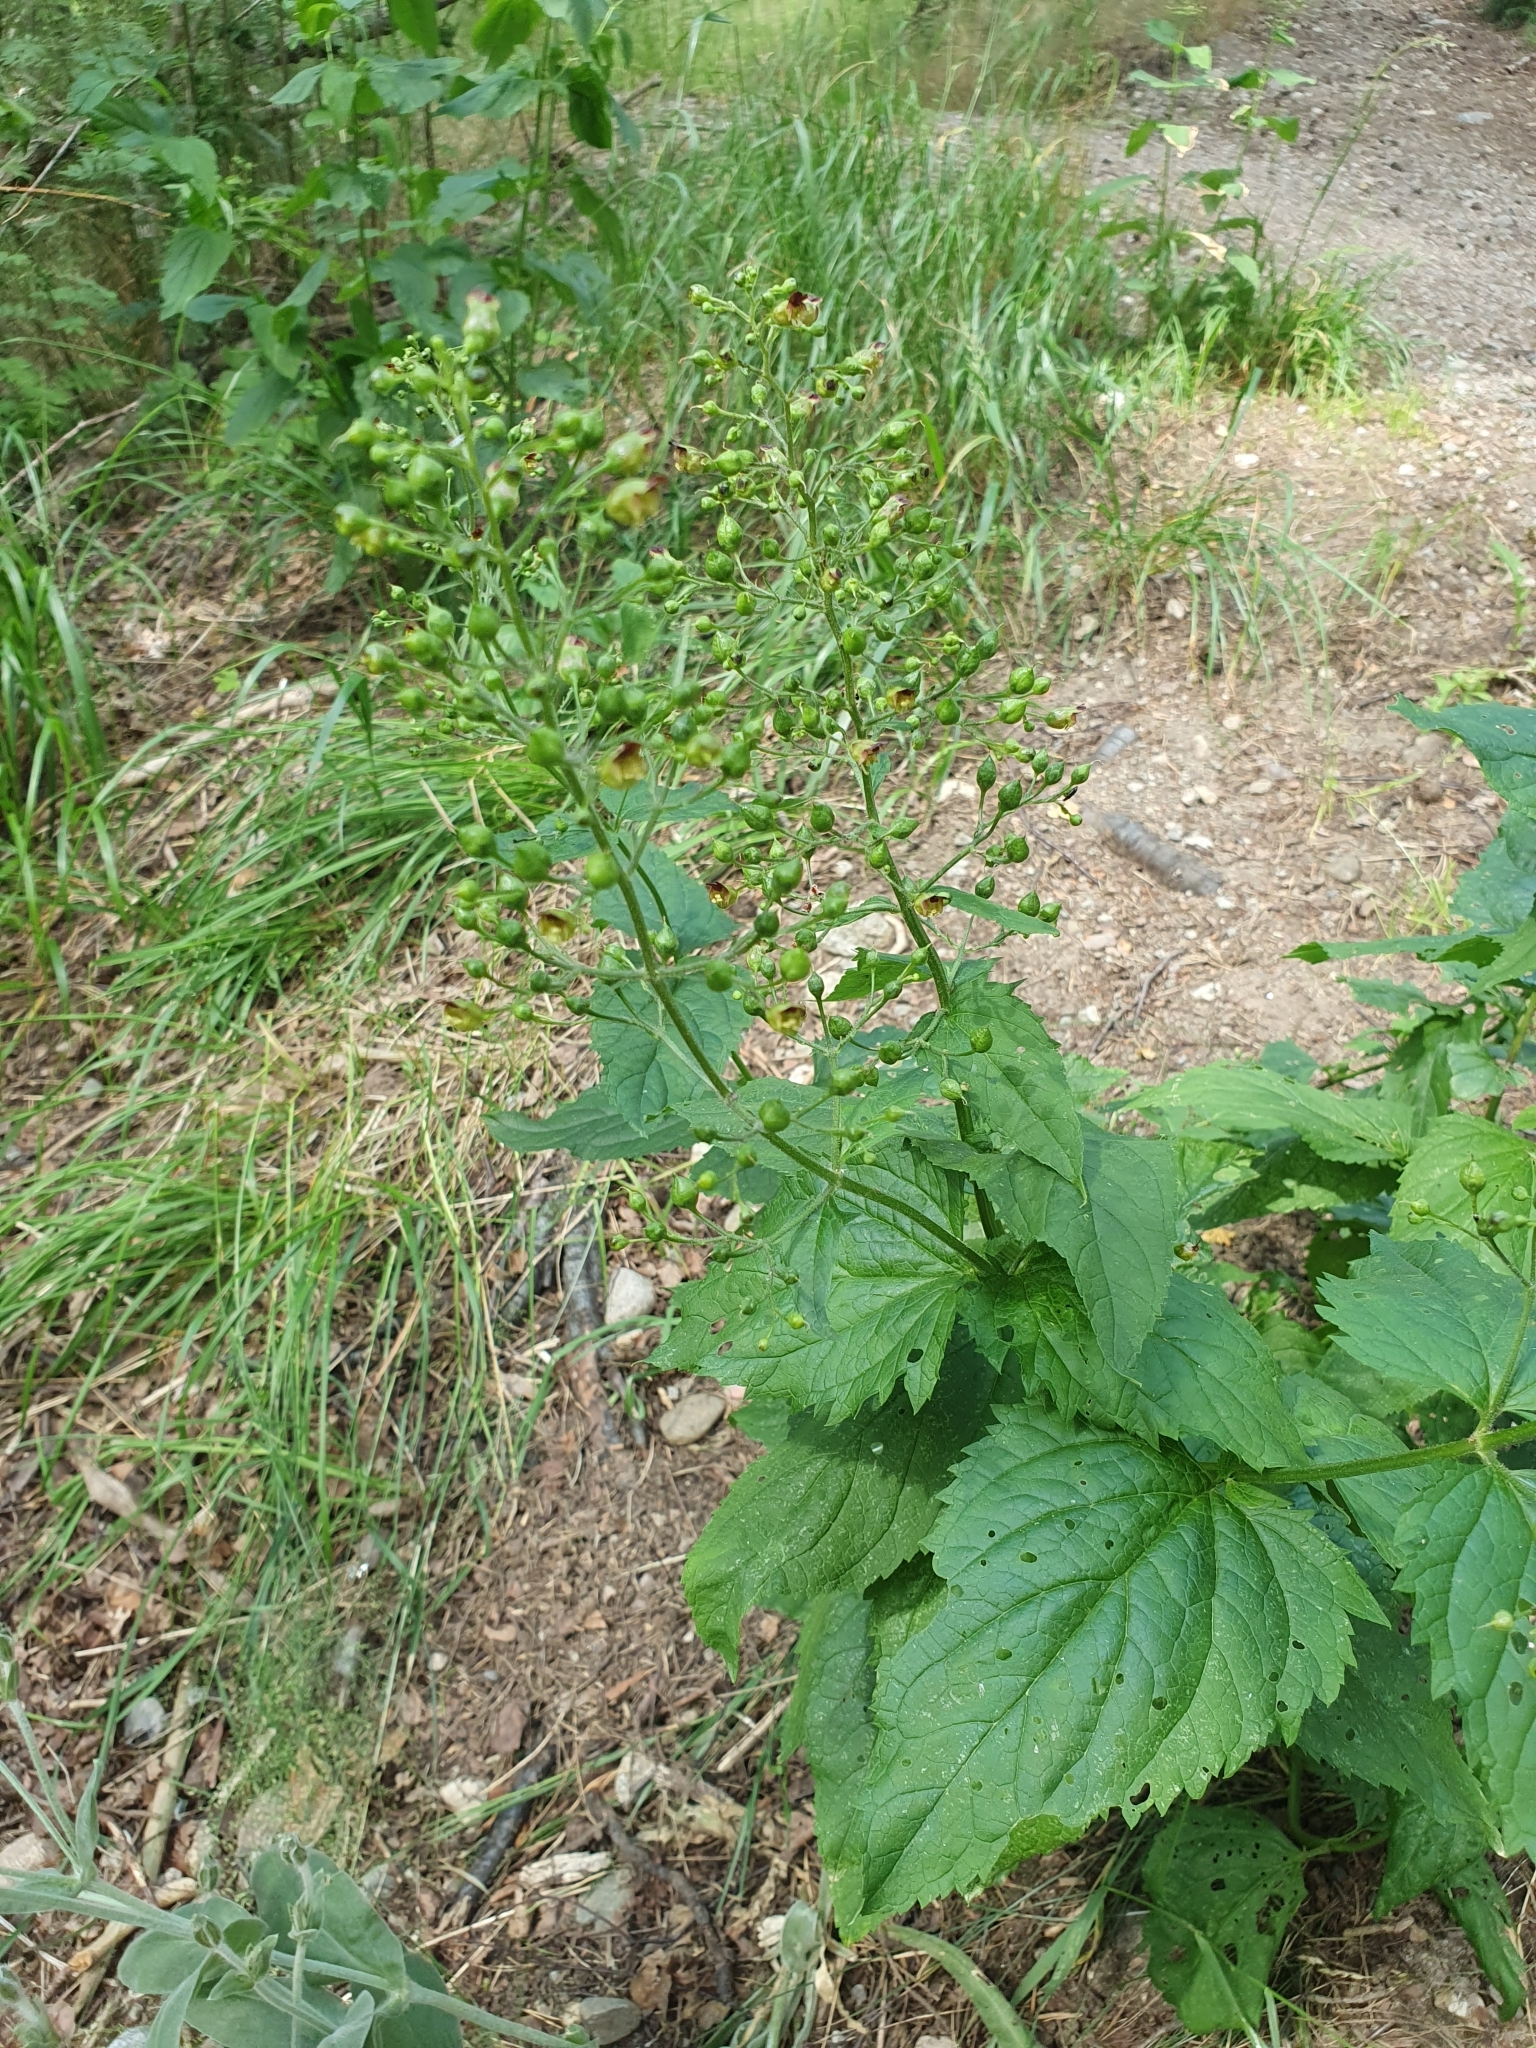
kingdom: Plantae
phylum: Tracheophyta
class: Magnoliopsida
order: Lamiales
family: Scrophulariaceae
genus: Scrophularia
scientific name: Scrophularia nodosa
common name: Common figwort
